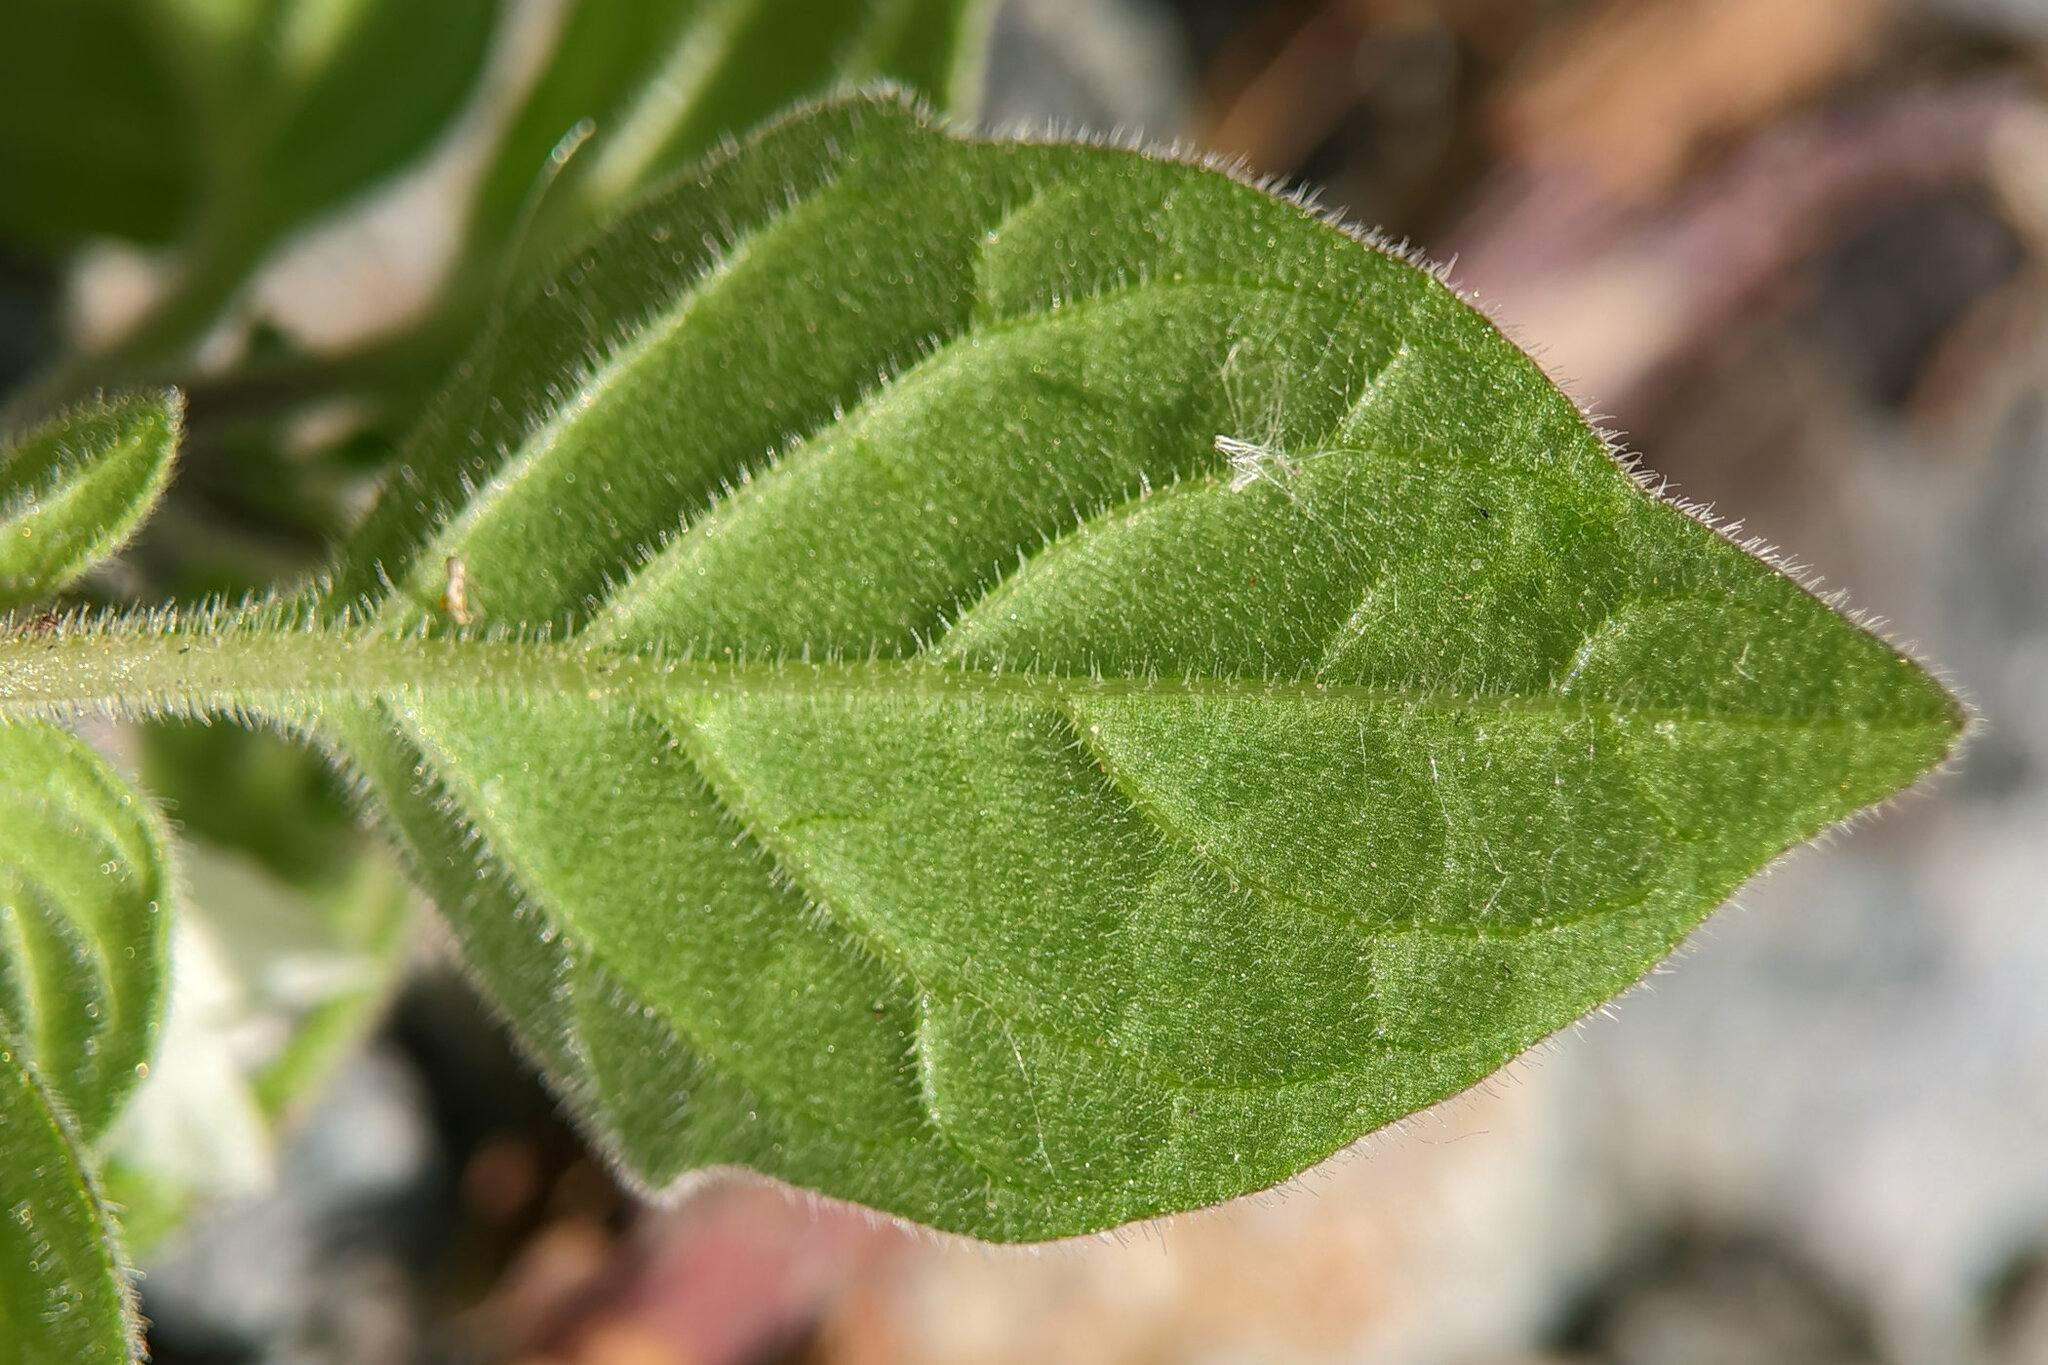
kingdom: Plantae
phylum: Tracheophyta
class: Magnoliopsida
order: Solanales
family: Solanaceae
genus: Solanum
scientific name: Solanum nigrum
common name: Black nightshade
